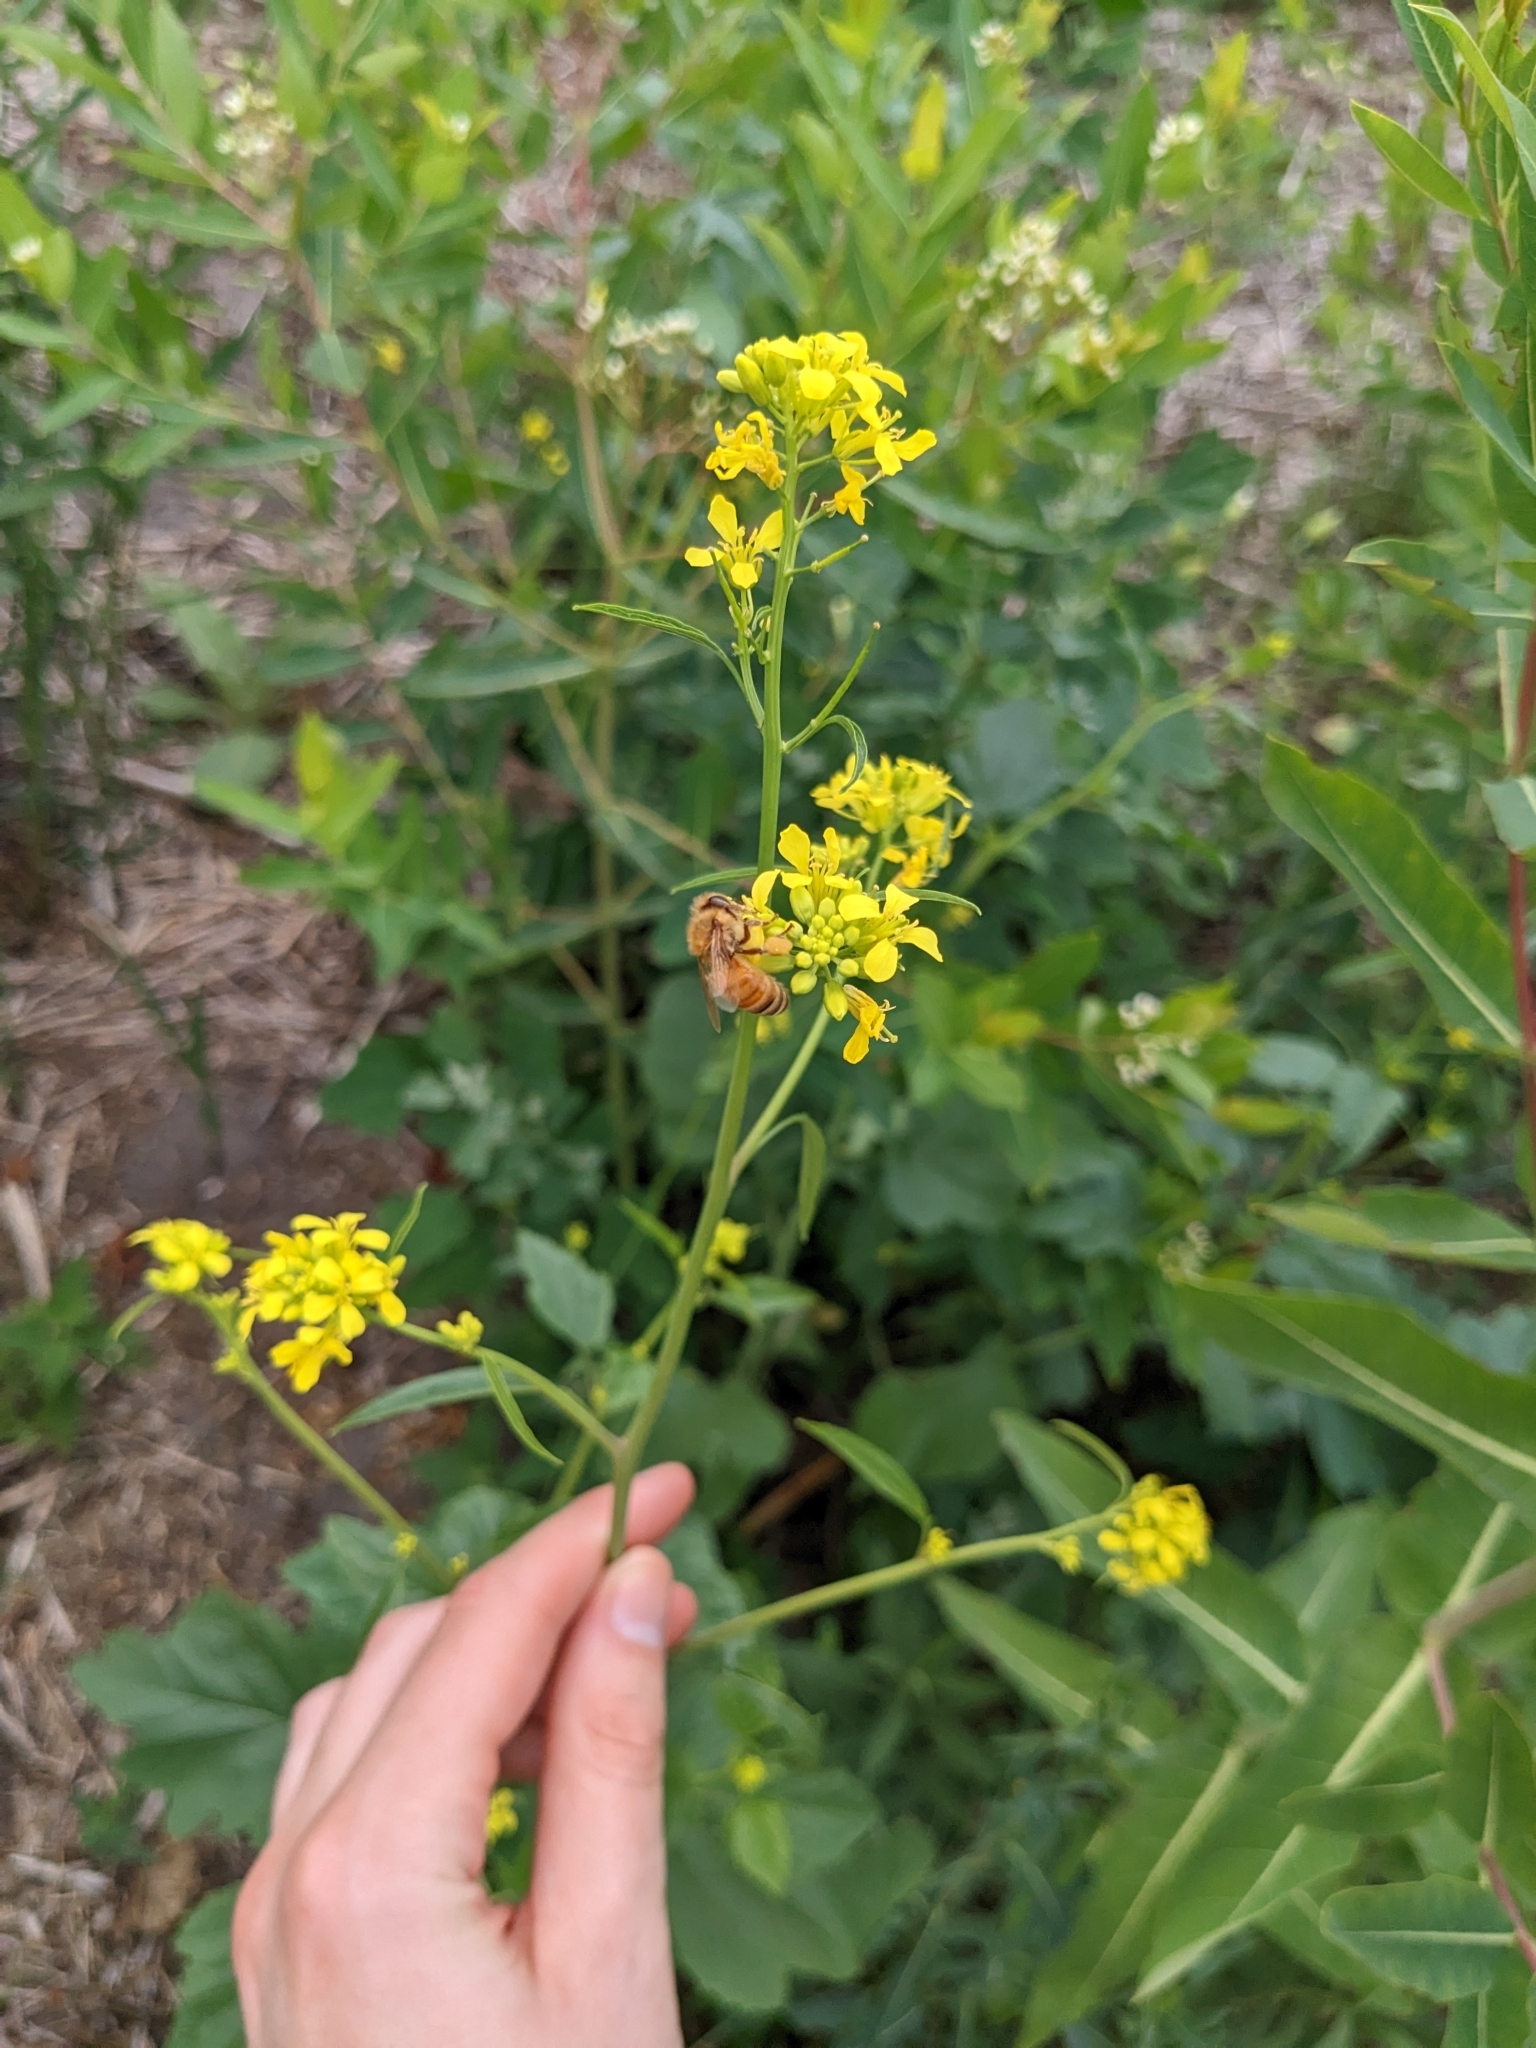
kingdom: Animalia
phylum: Arthropoda
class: Insecta
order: Hymenoptera
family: Apidae
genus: Apis
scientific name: Apis mellifera
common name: Honey bee
